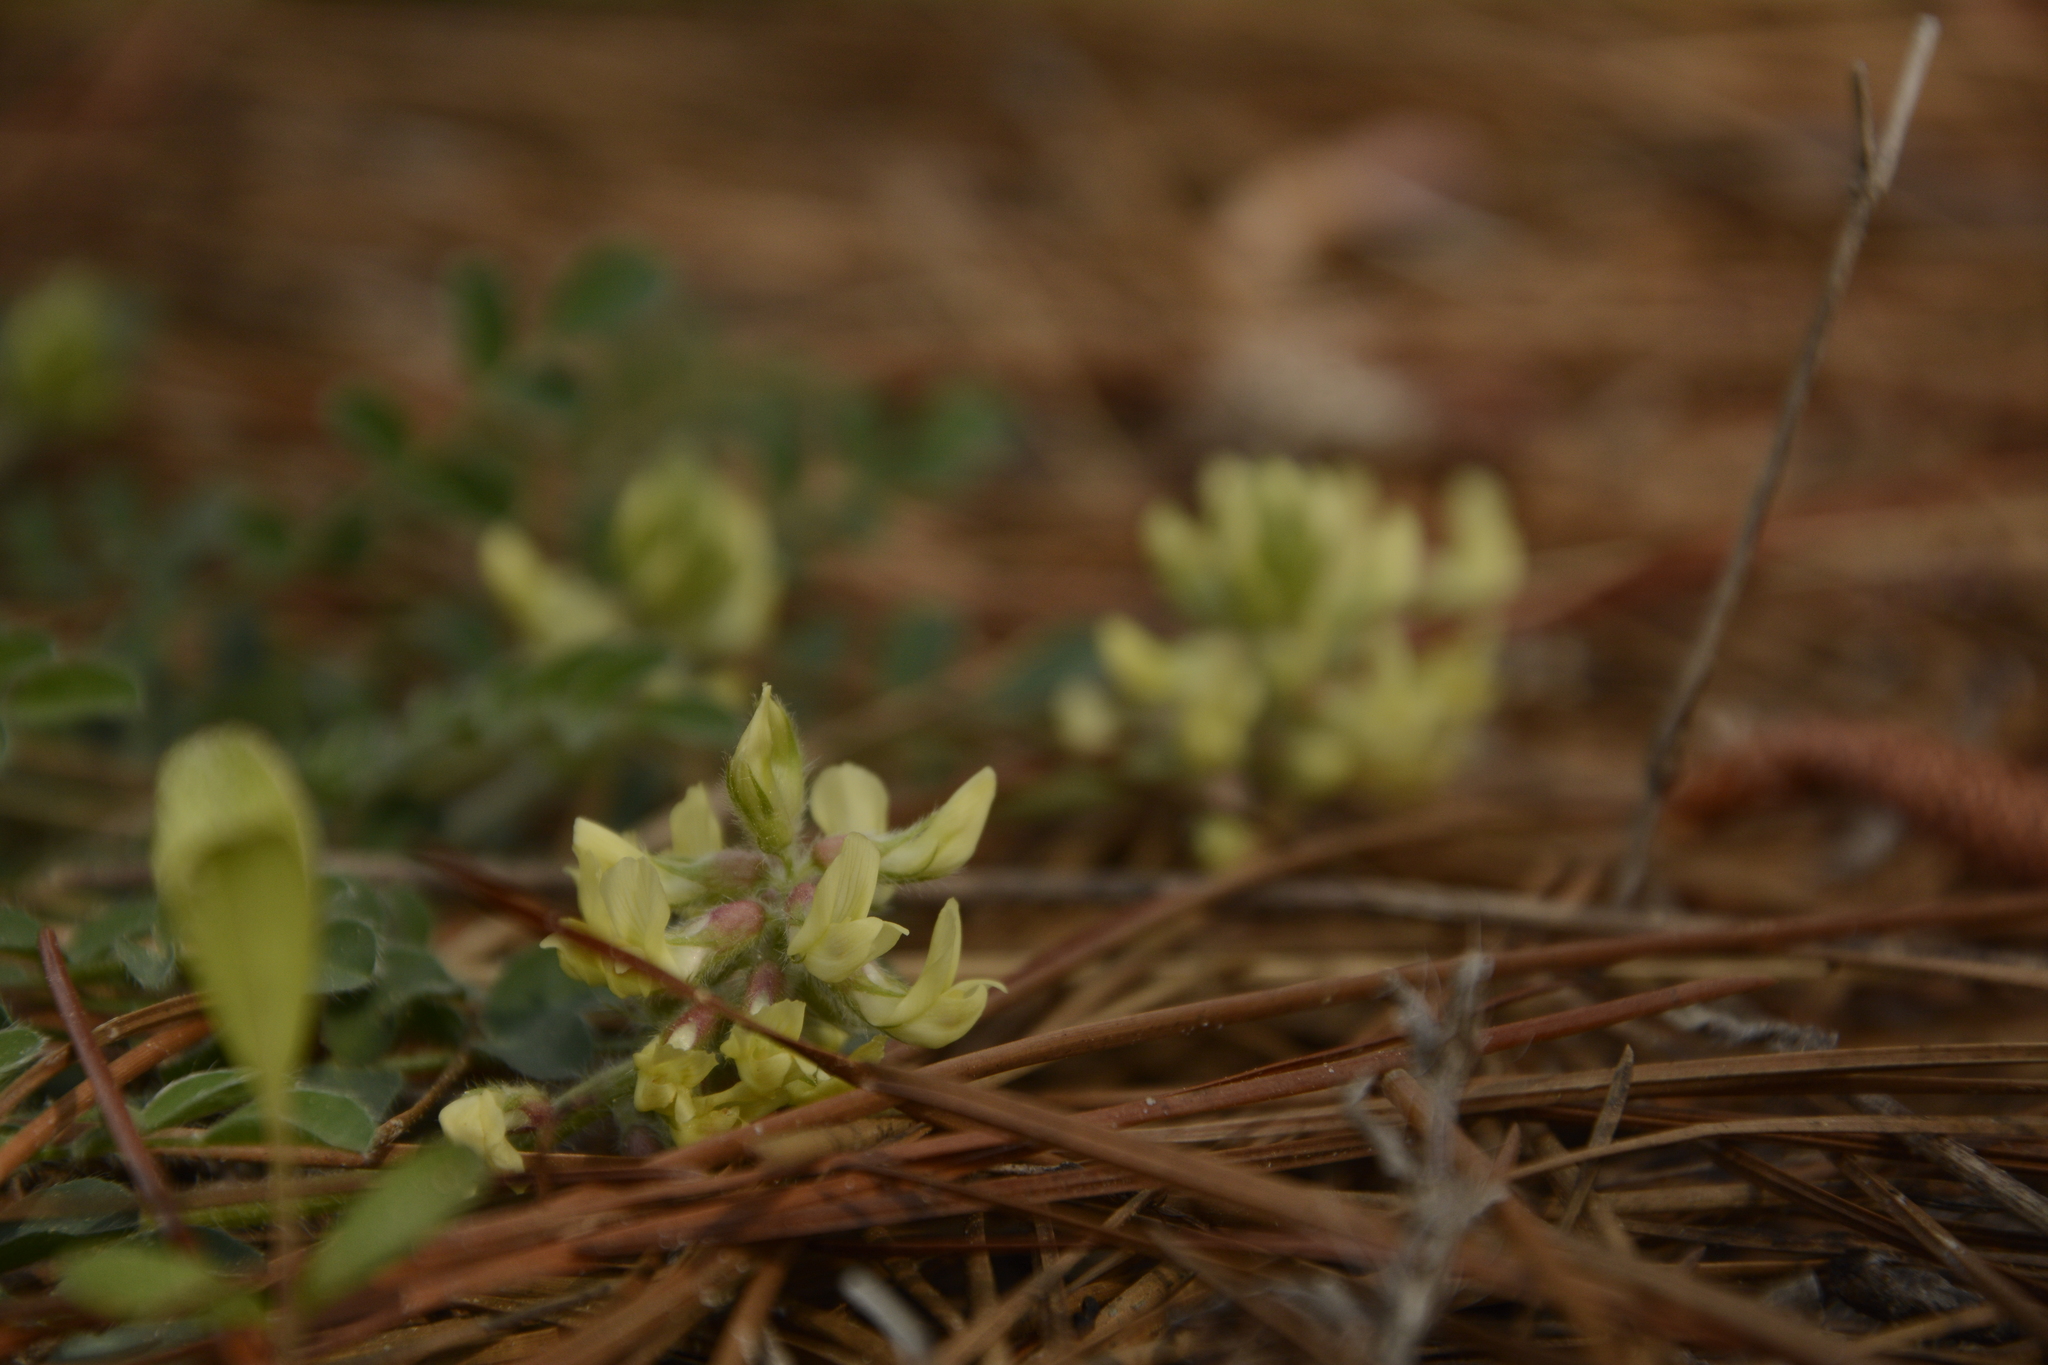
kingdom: Plantae
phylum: Tracheophyta
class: Magnoliopsida
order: Fabales
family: Fabaceae
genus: Astragalus
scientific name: Astragalus villosus
